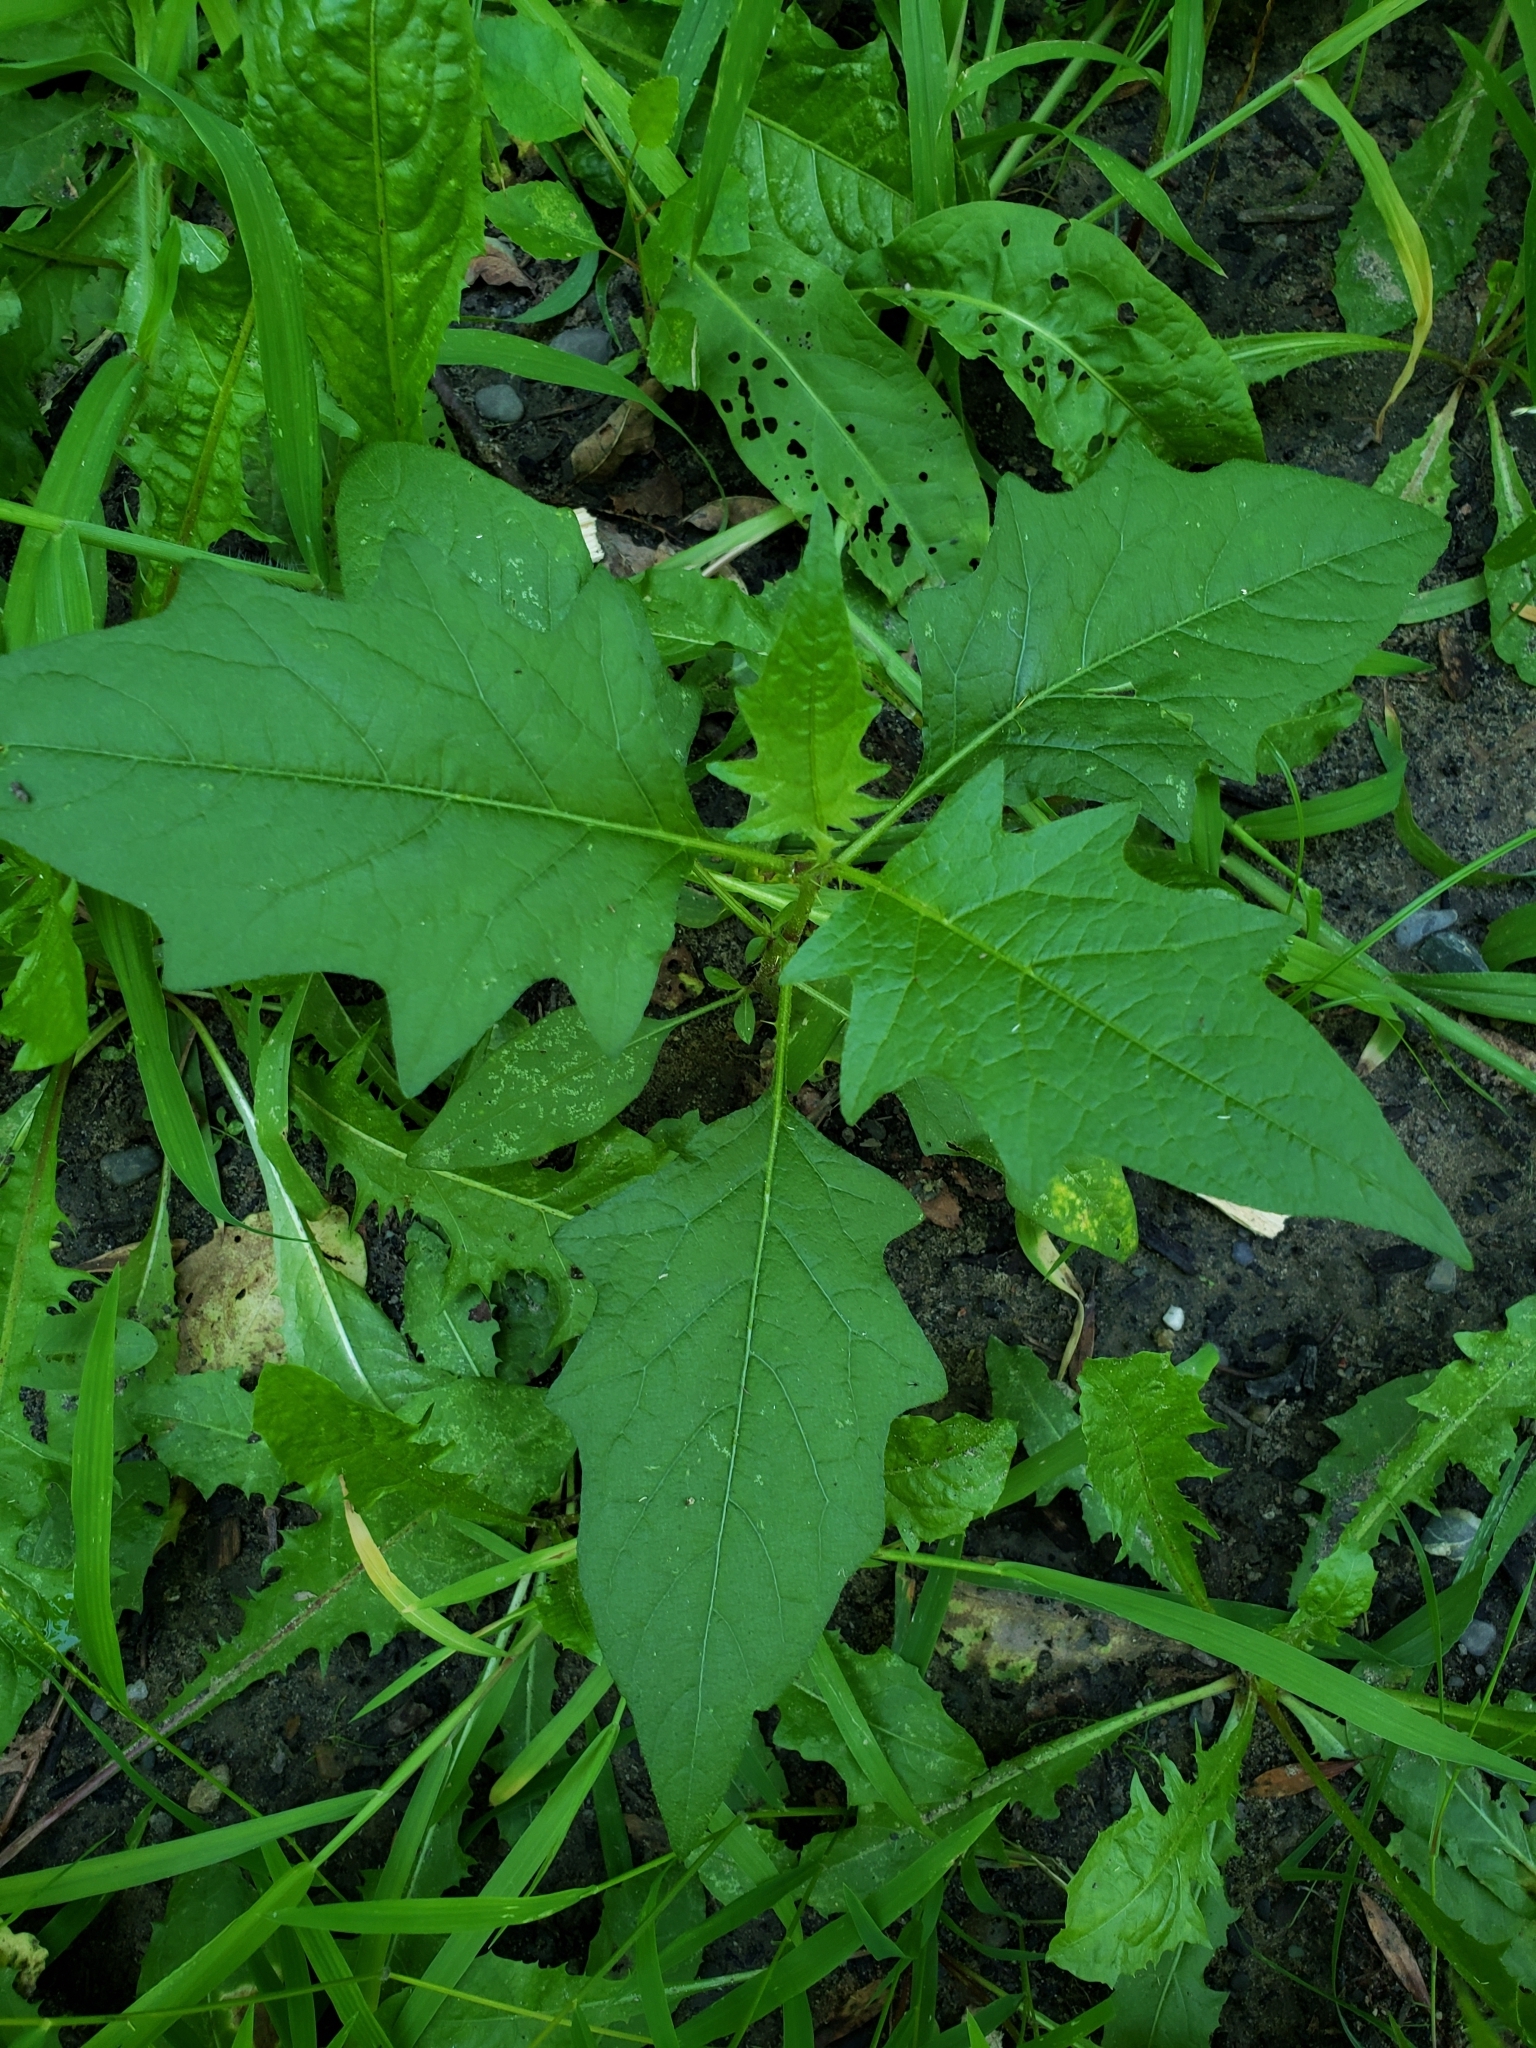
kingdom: Plantae
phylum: Tracheophyta
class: Magnoliopsida
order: Solanales
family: Solanaceae
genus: Solanum
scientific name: Solanum carolinense
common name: Horse-nettle
